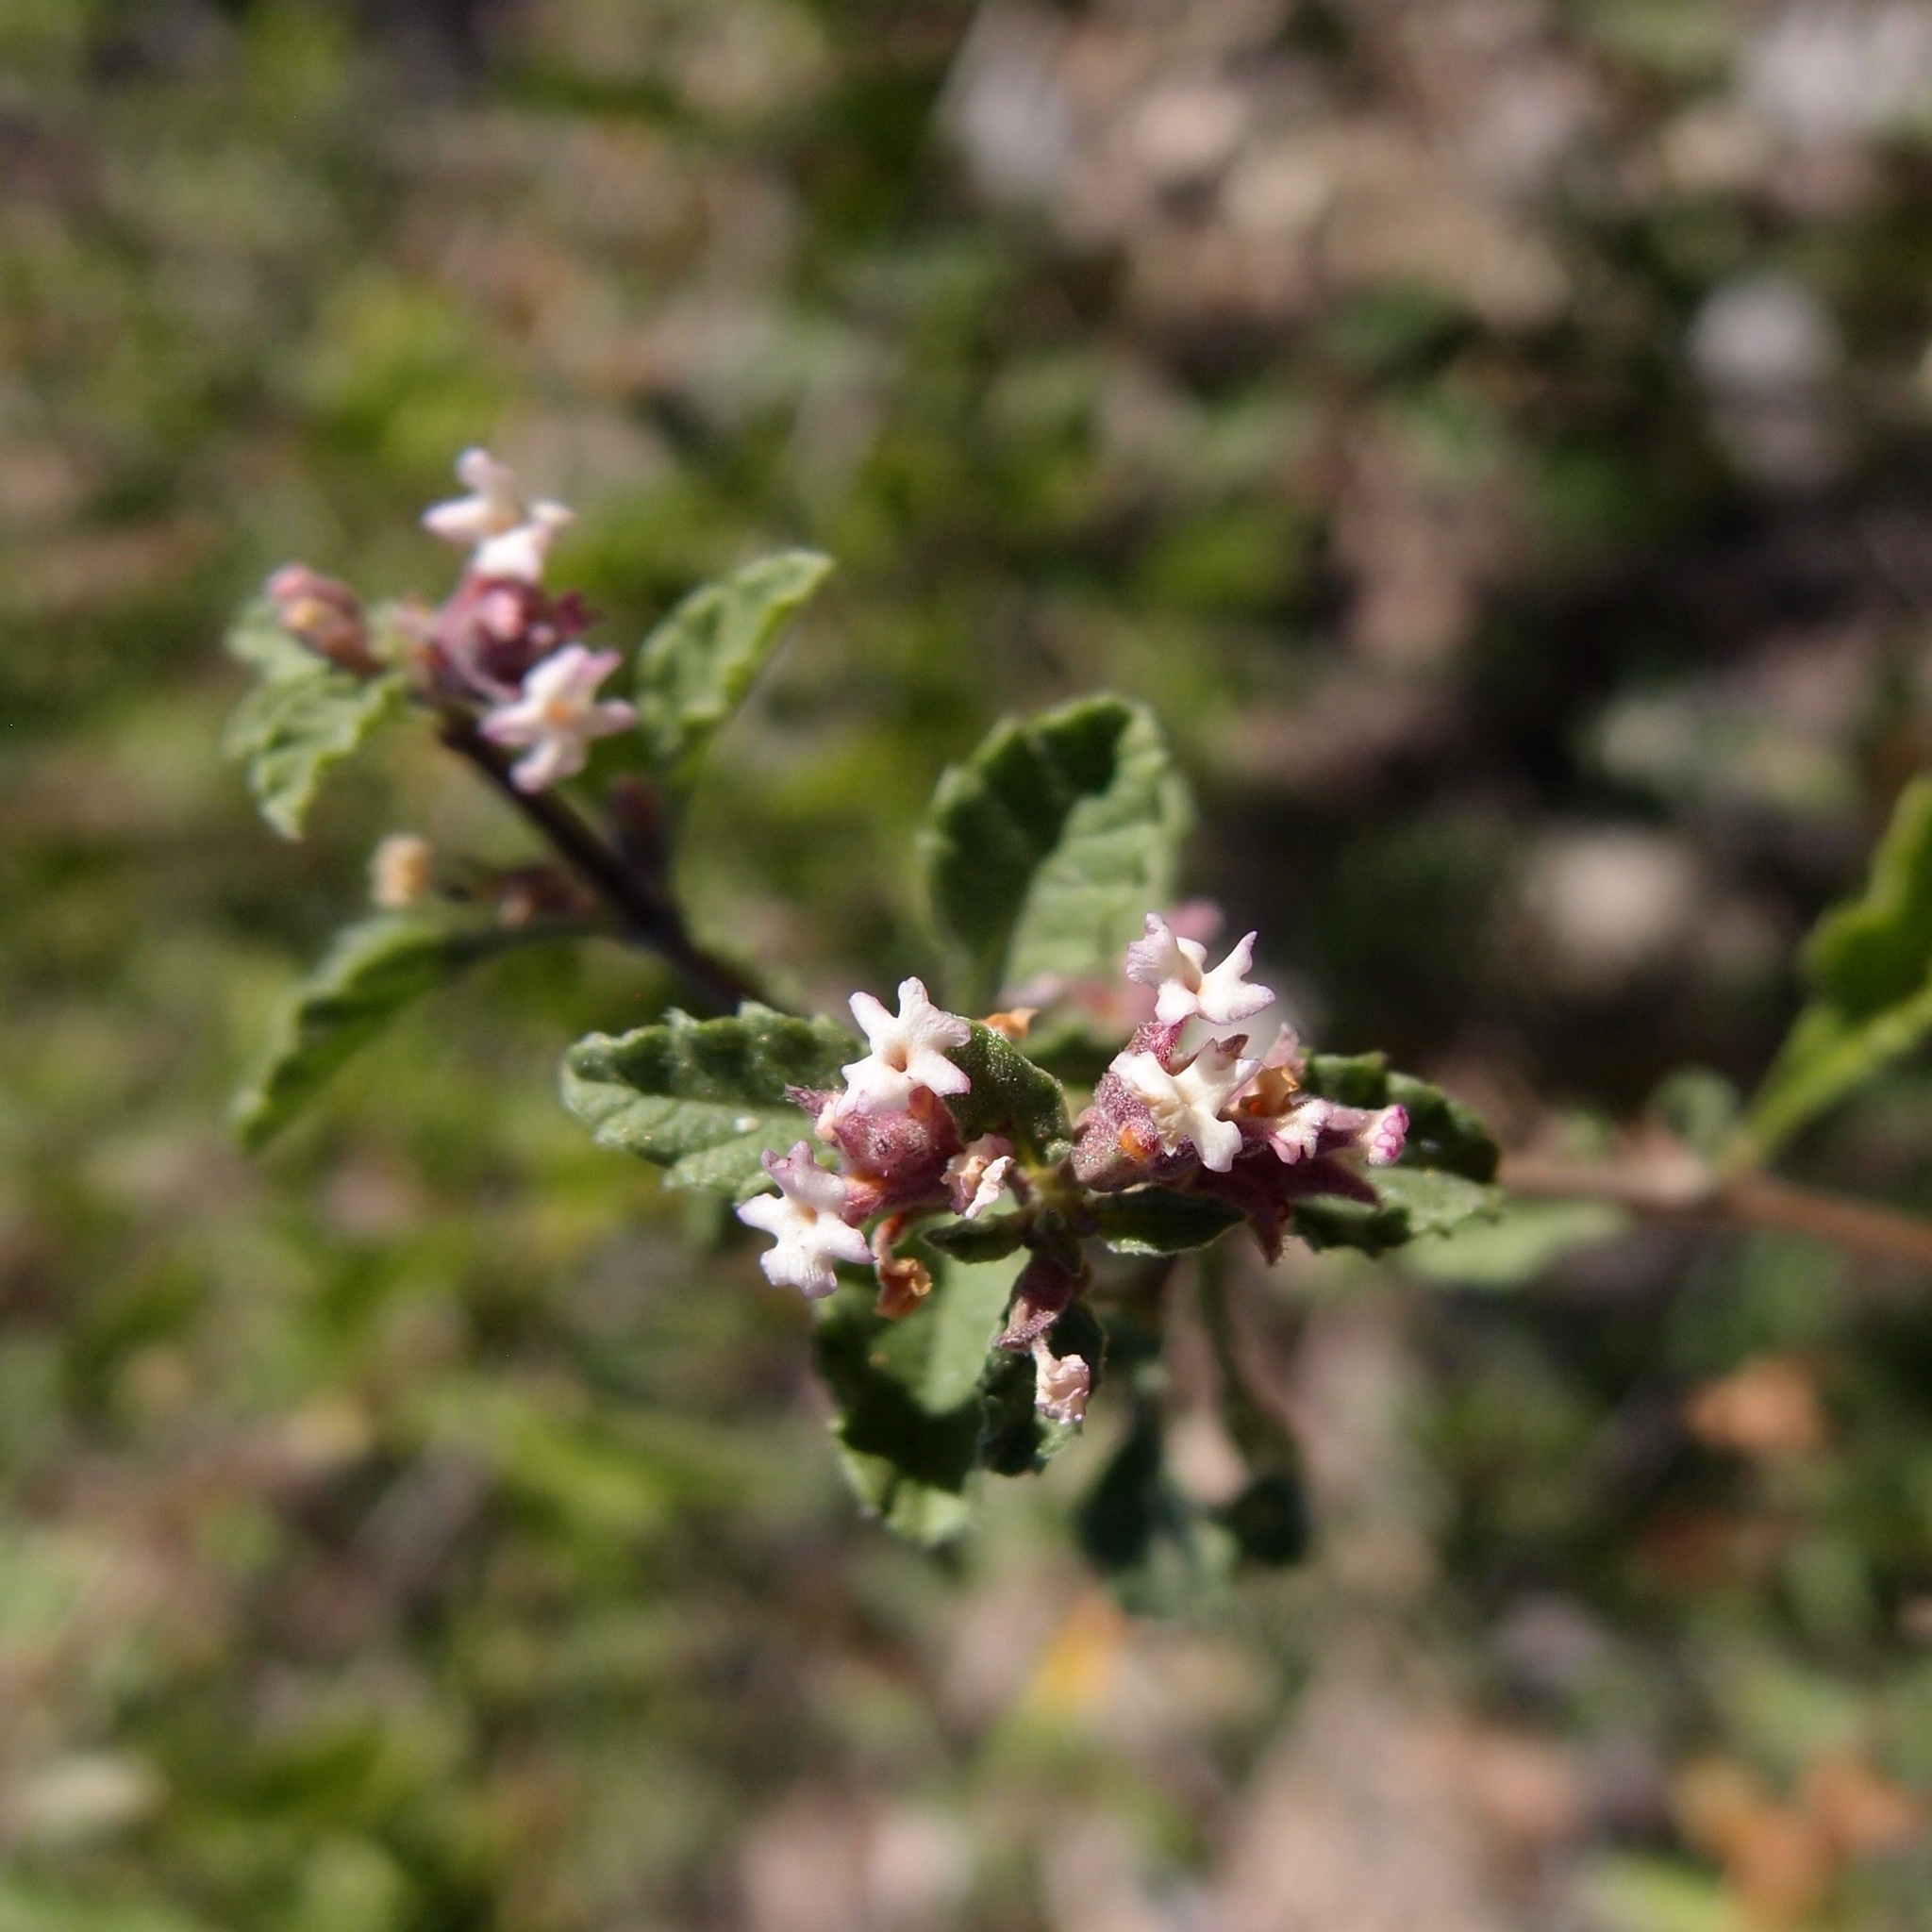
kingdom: Plantae
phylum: Tracheophyta
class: Magnoliopsida
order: Lamiales
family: Verbenaceae
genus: Lippia
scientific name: Lippia origanoides
